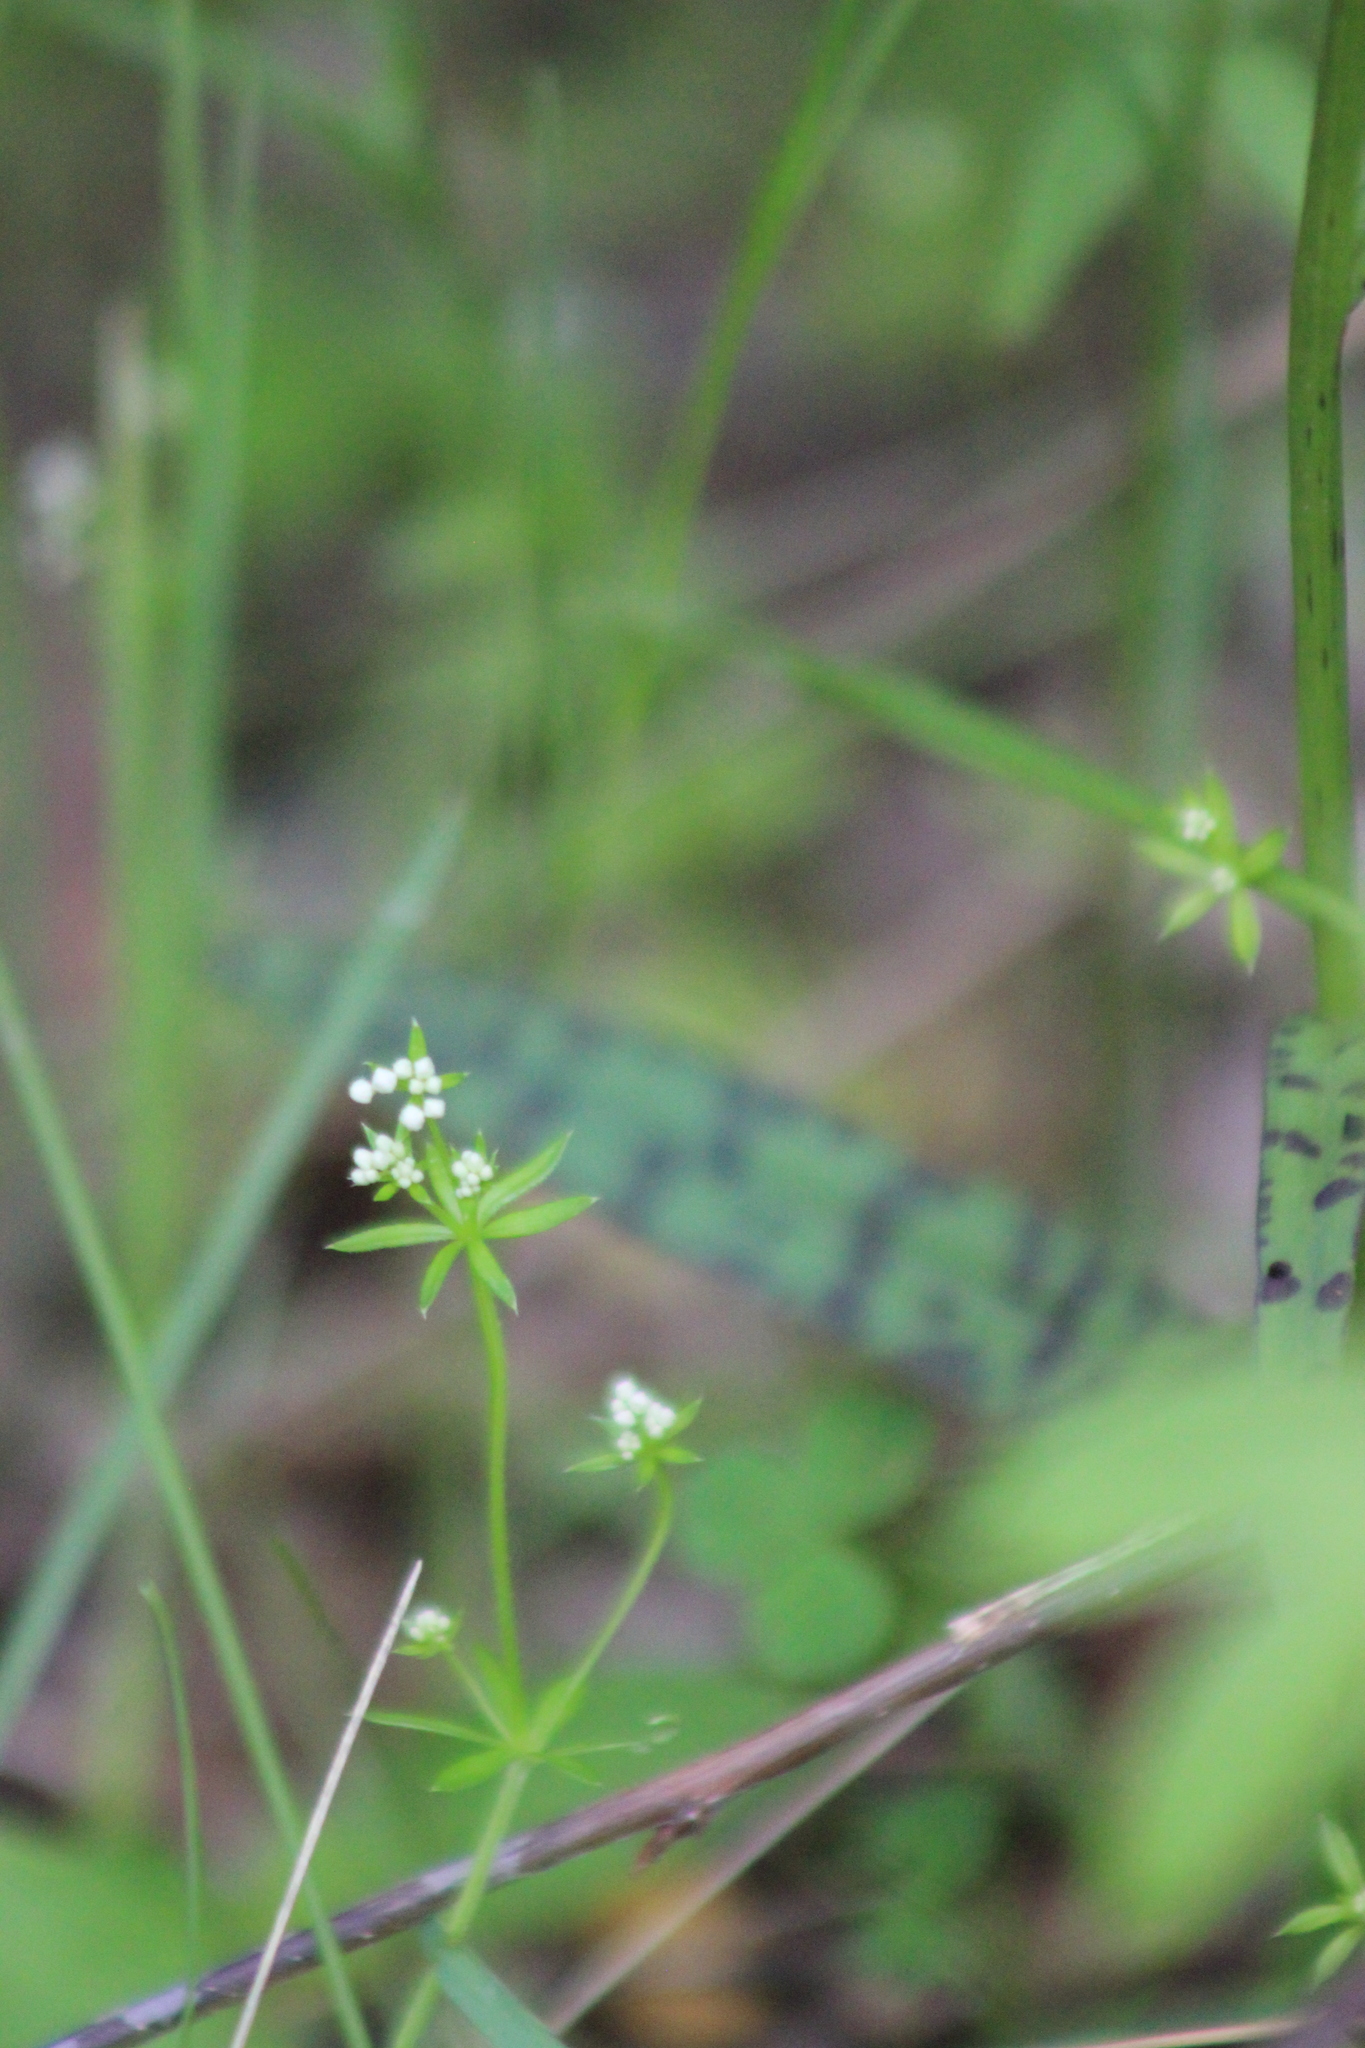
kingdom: Plantae
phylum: Tracheophyta
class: Liliopsida
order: Asparagales
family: Orchidaceae
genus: Dactylorhiza
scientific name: Dactylorhiza maculata
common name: Heath spotted-orchid
